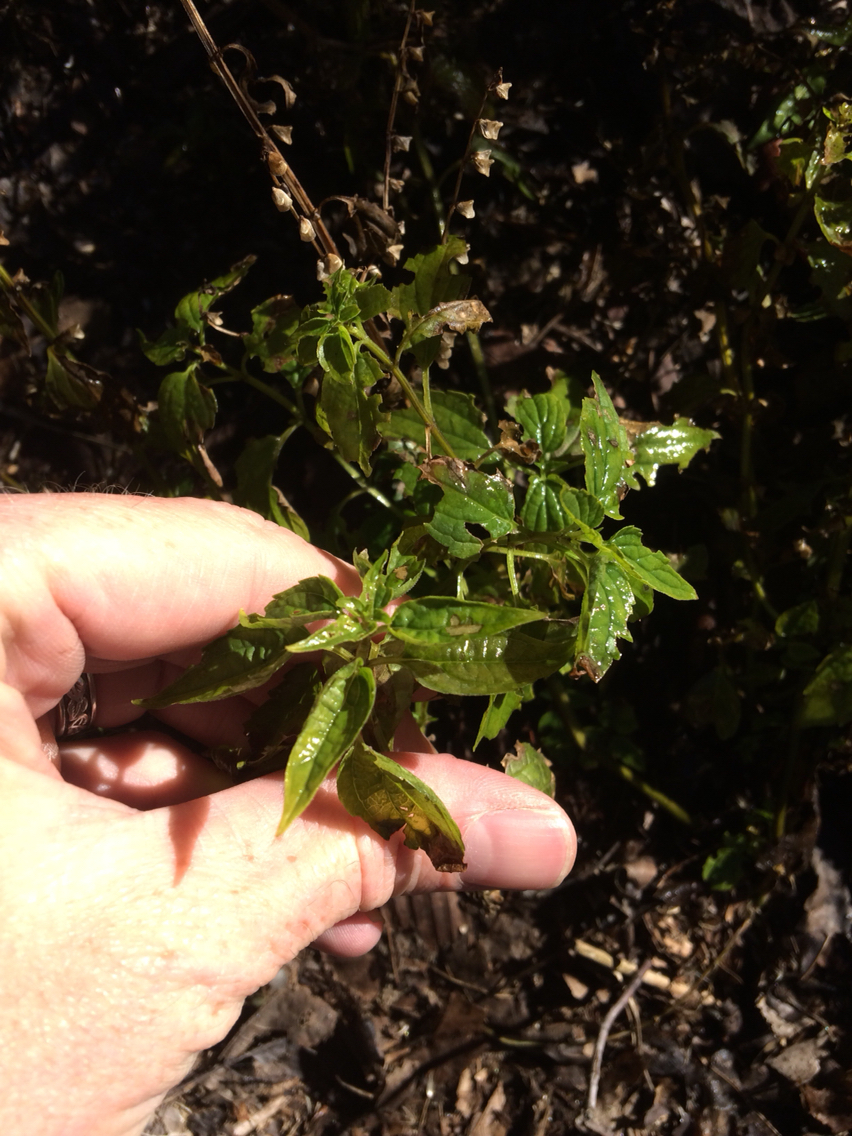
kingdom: Plantae
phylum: Tracheophyta
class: Magnoliopsida
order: Rosales
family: Urticaceae
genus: Pilea
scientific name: Pilea pumila
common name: Clearweed
